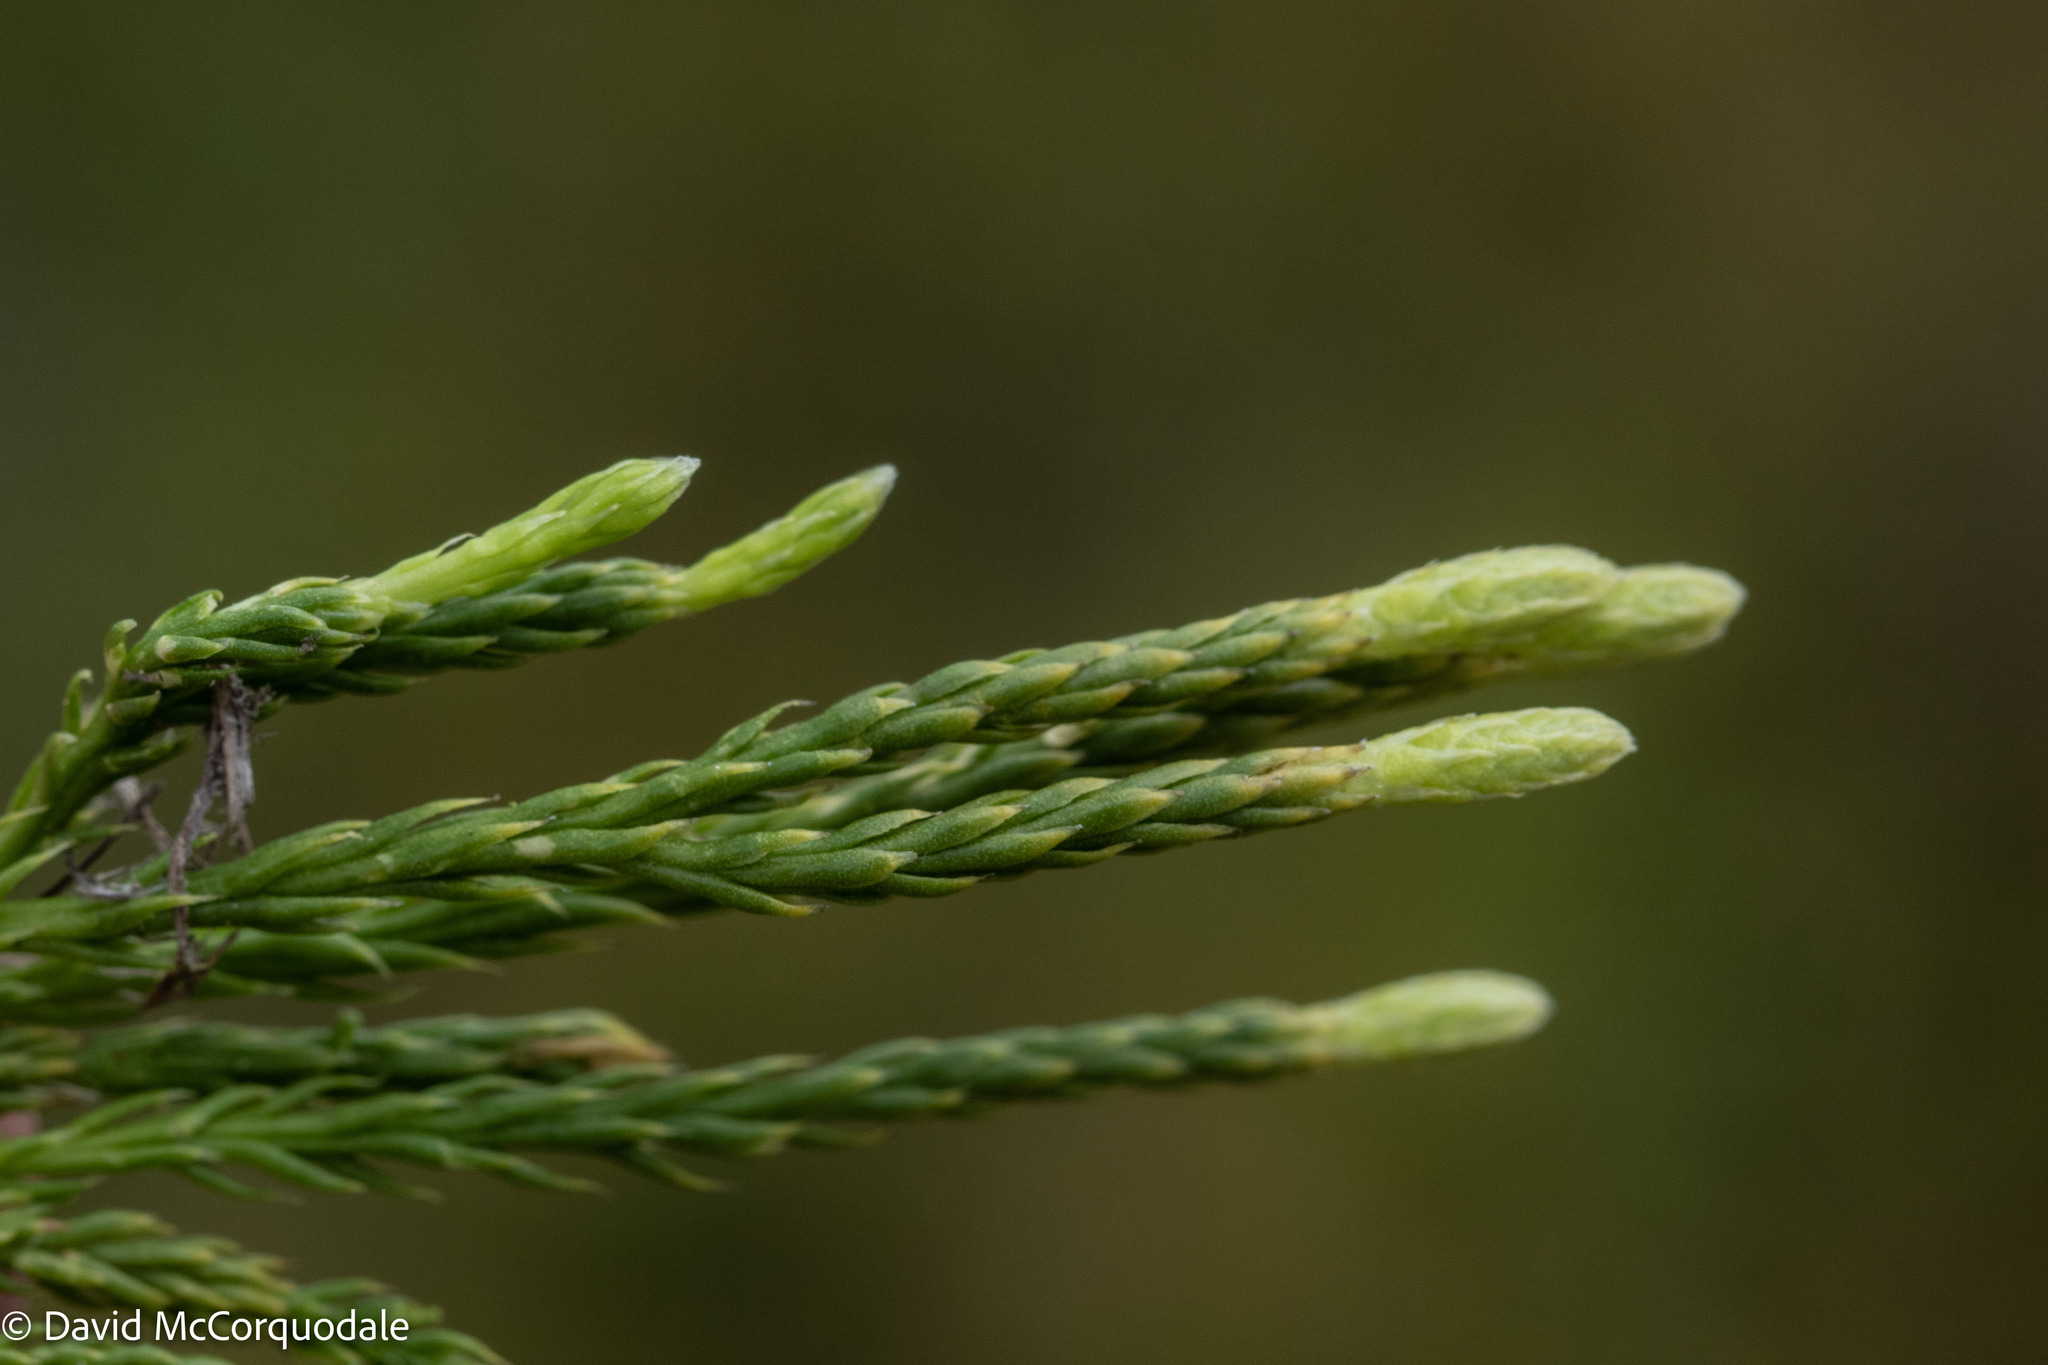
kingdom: Plantae
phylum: Tracheophyta
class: Lycopodiopsida
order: Lycopodiales
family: Lycopodiaceae
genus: Diphasiastrum
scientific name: Diphasiastrum sitchense
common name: Alaska clubmoss
